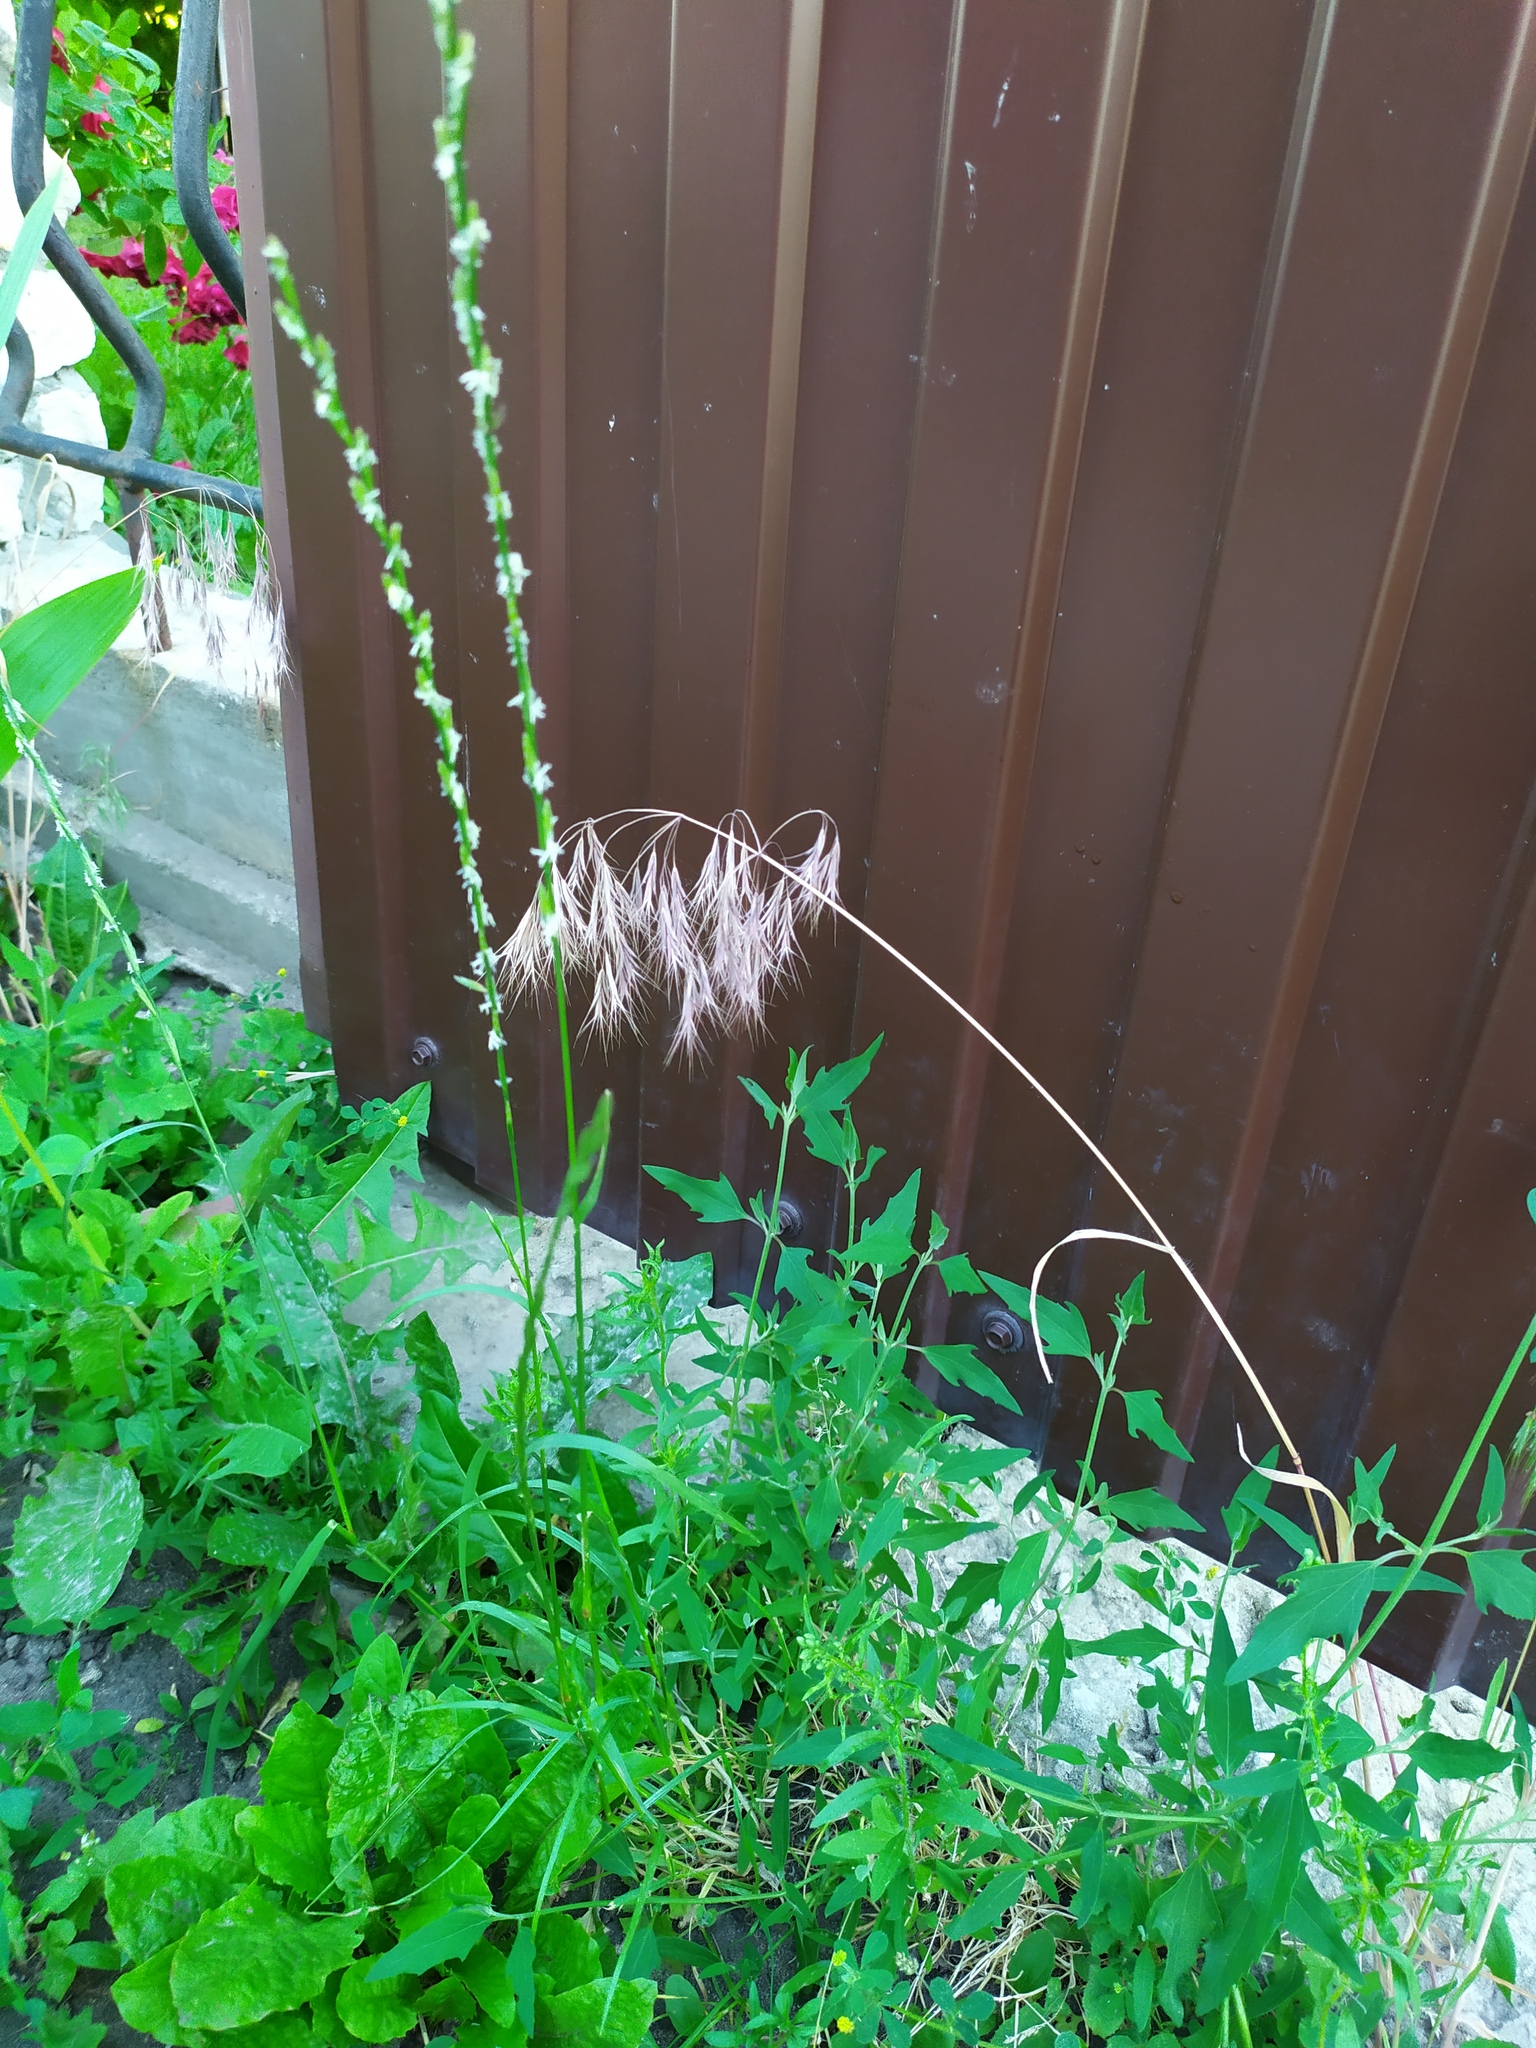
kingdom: Plantae
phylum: Tracheophyta
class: Liliopsida
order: Poales
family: Poaceae
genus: Bromus
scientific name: Bromus tectorum
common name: Cheatgrass
